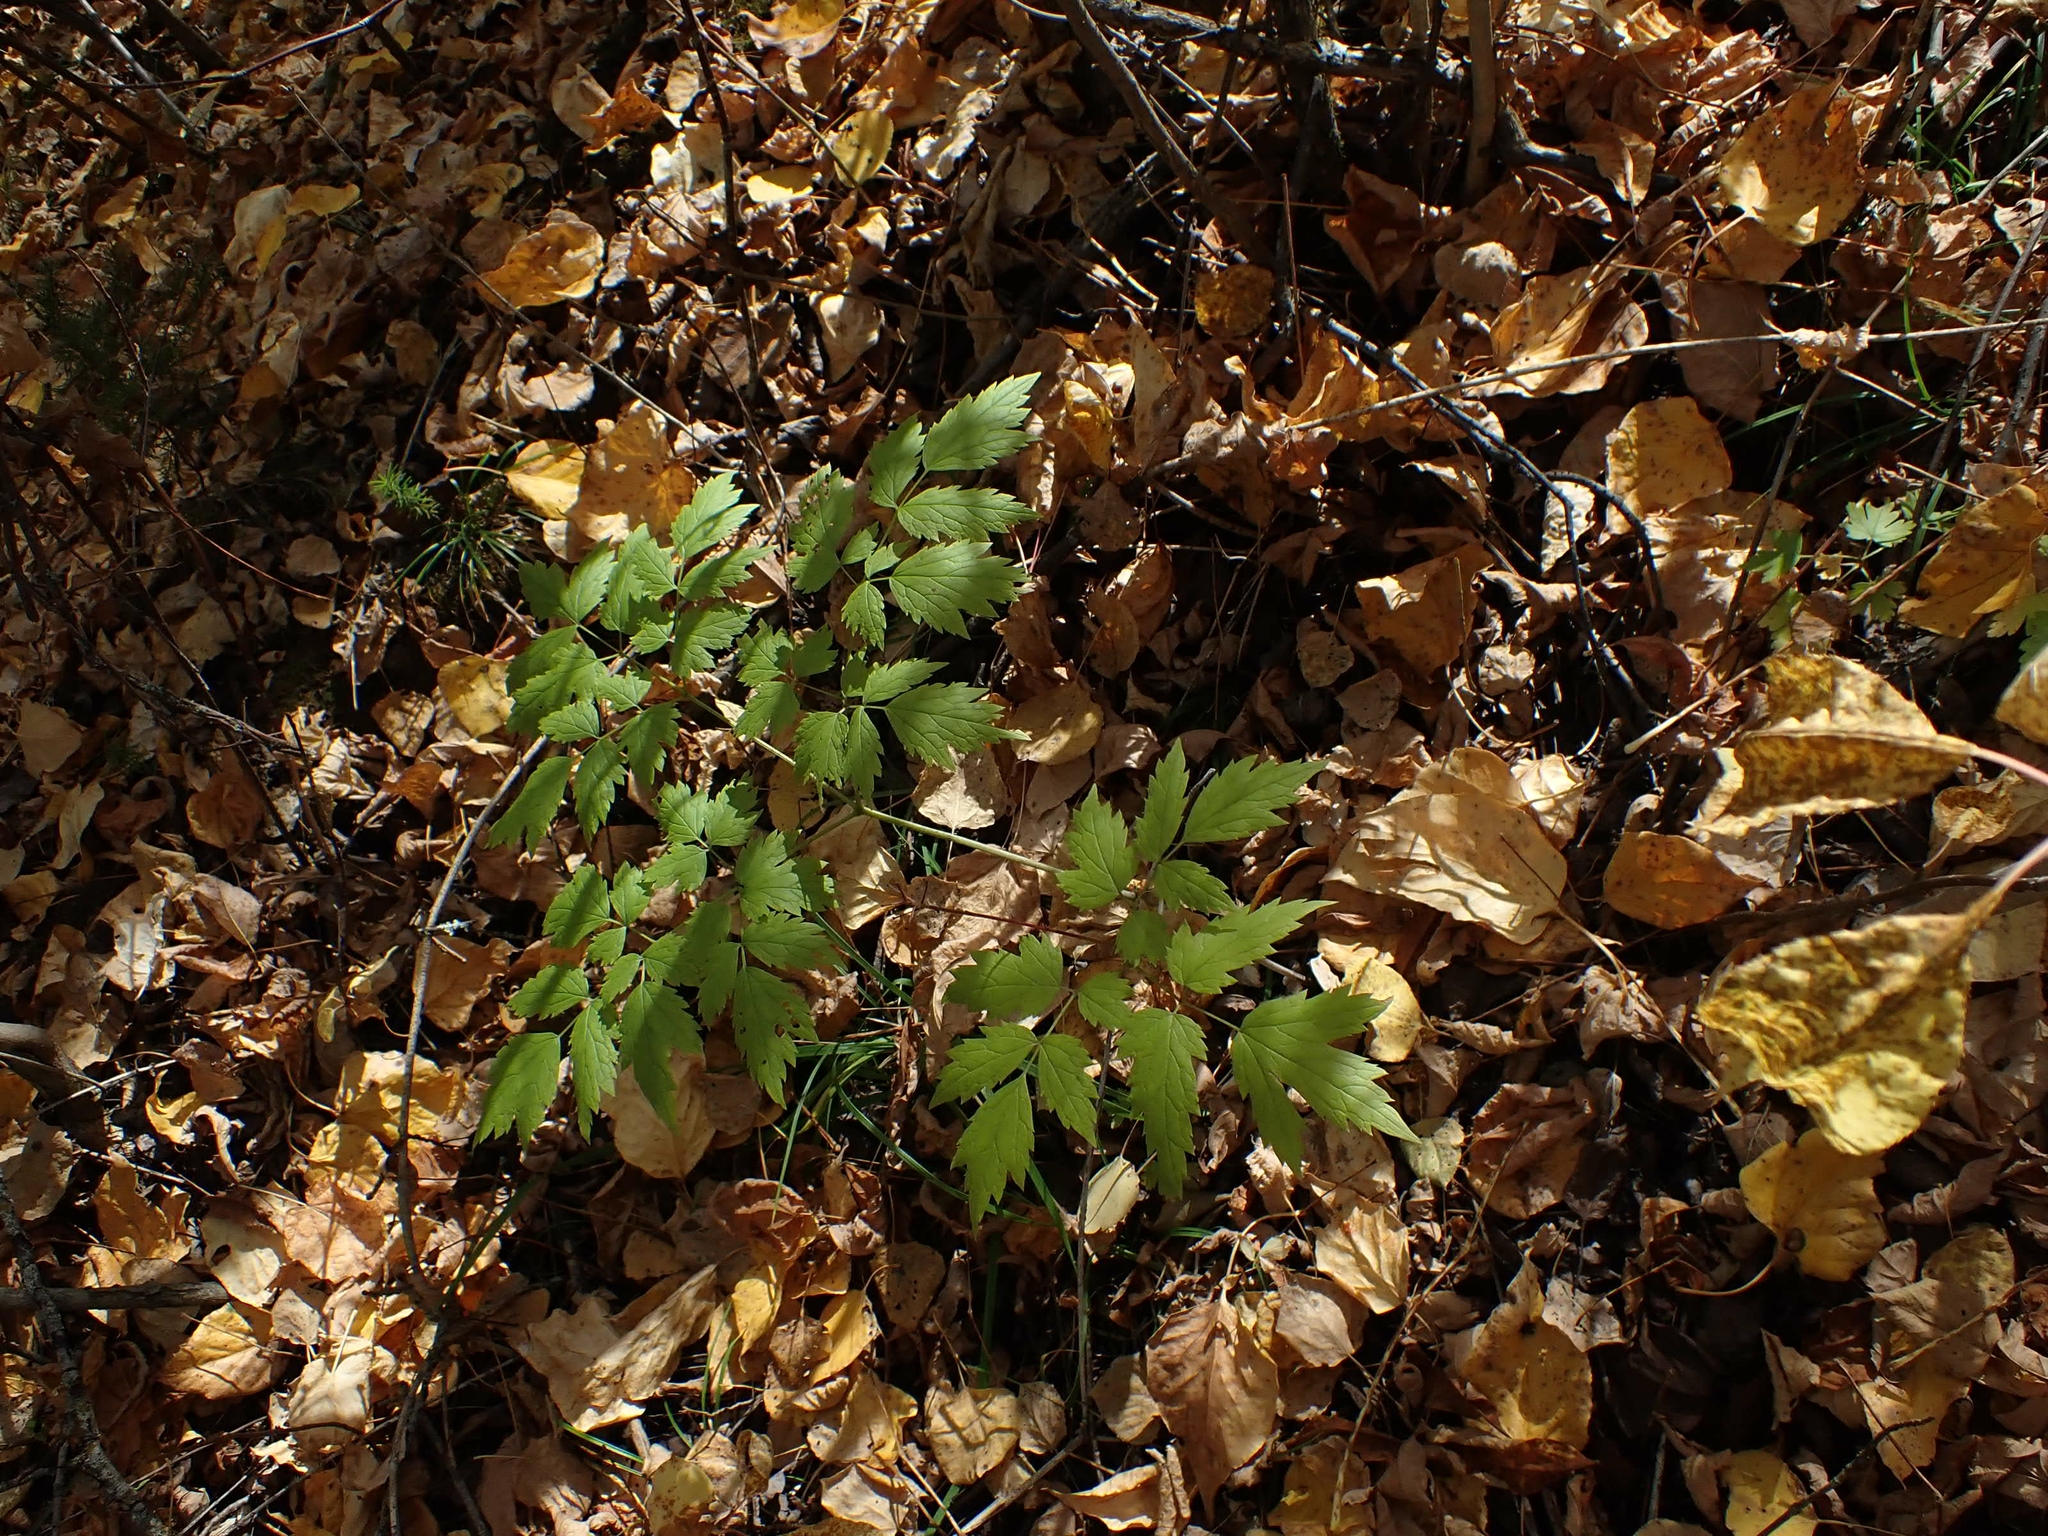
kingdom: Plantae
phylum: Tracheophyta
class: Magnoliopsida
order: Ranunculales
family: Ranunculaceae
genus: Actaea
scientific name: Actaea rubra
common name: Red baneberry
